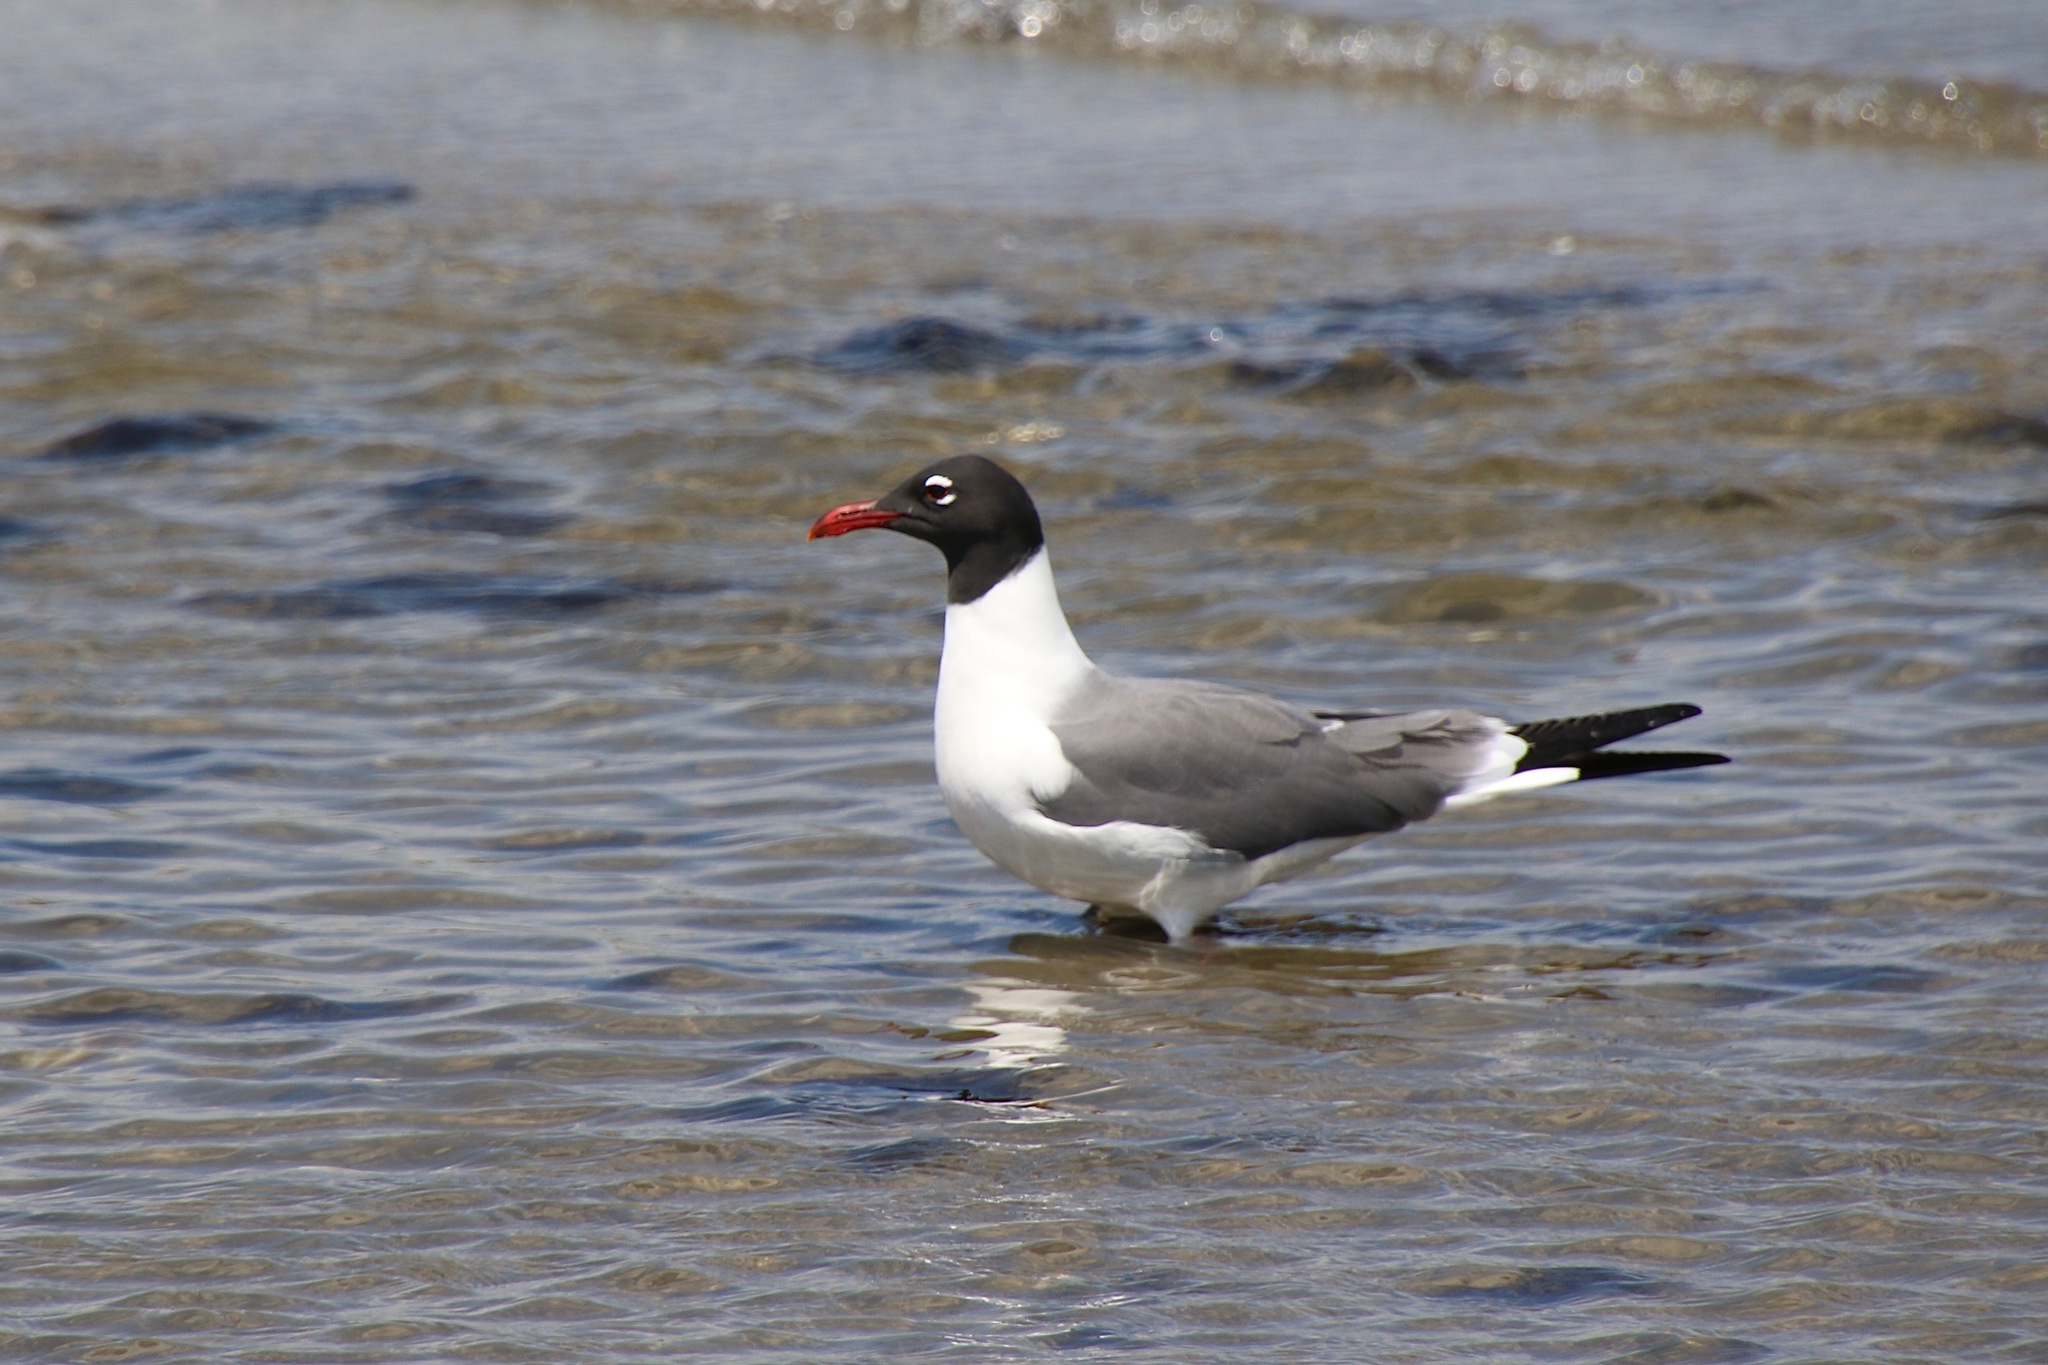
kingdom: Animalia
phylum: Chordata
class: Aves
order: Charadriiformes
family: Laridae
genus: Leucophaeus
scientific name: Leucophaeus atricilla
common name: Laughing gull
